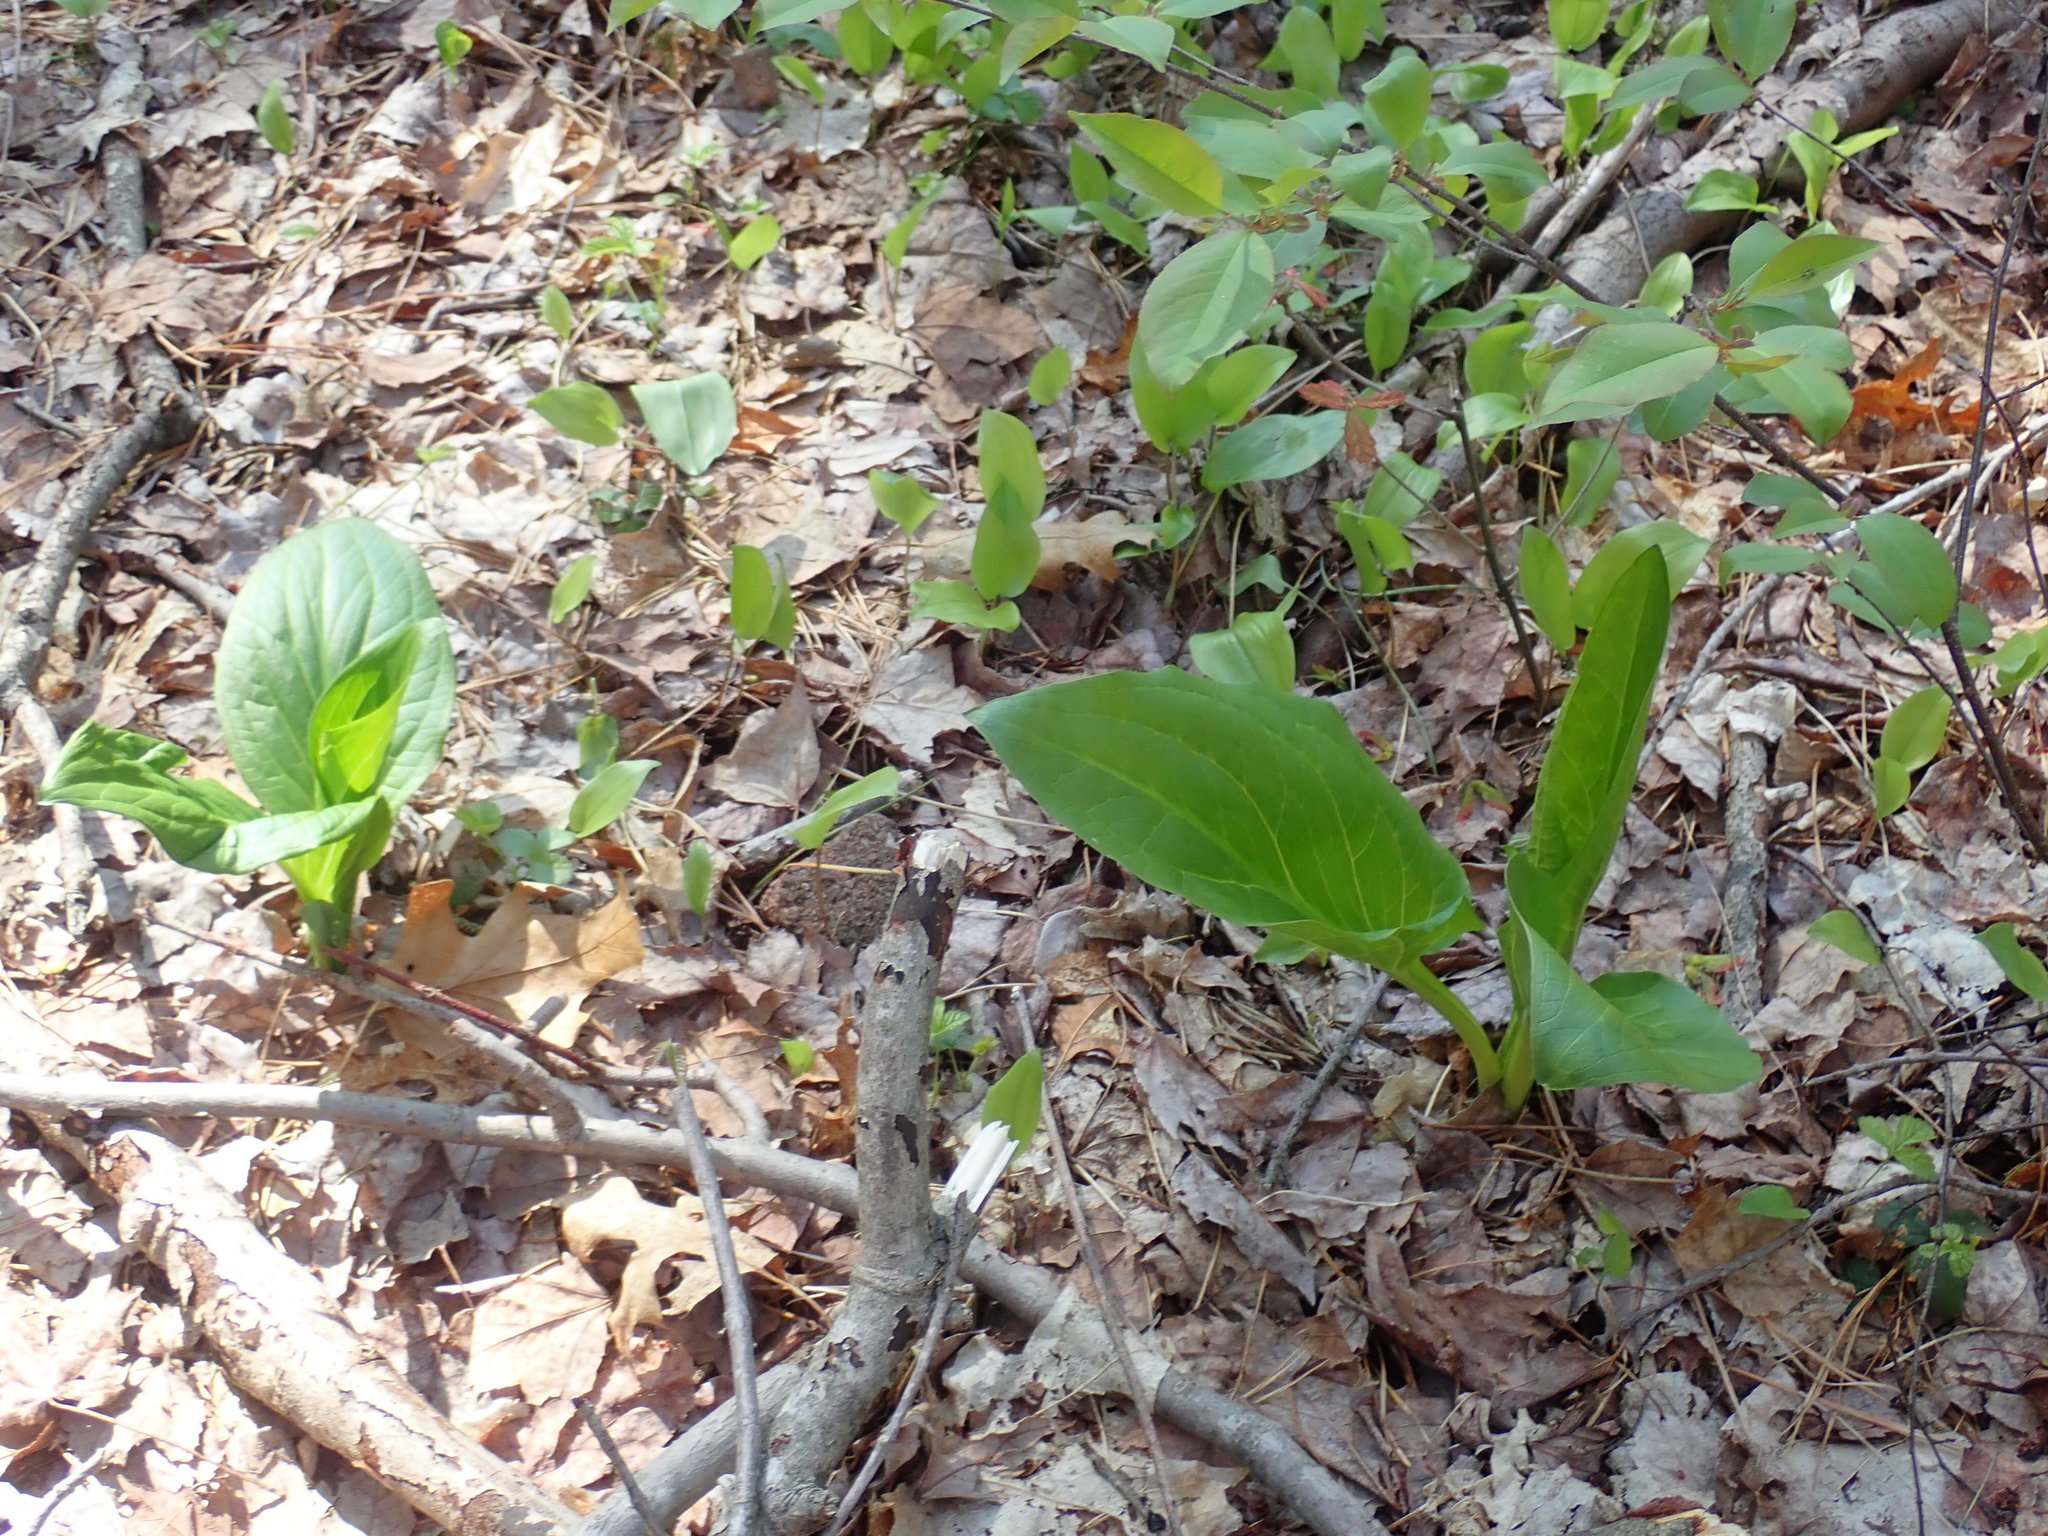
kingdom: Plantae
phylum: Tracheophyta
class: Liliopsida
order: Alismatales
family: Araceae
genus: Symplocarpus
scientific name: Symplocarpus foetidus
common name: Eastern skunk cabbage
